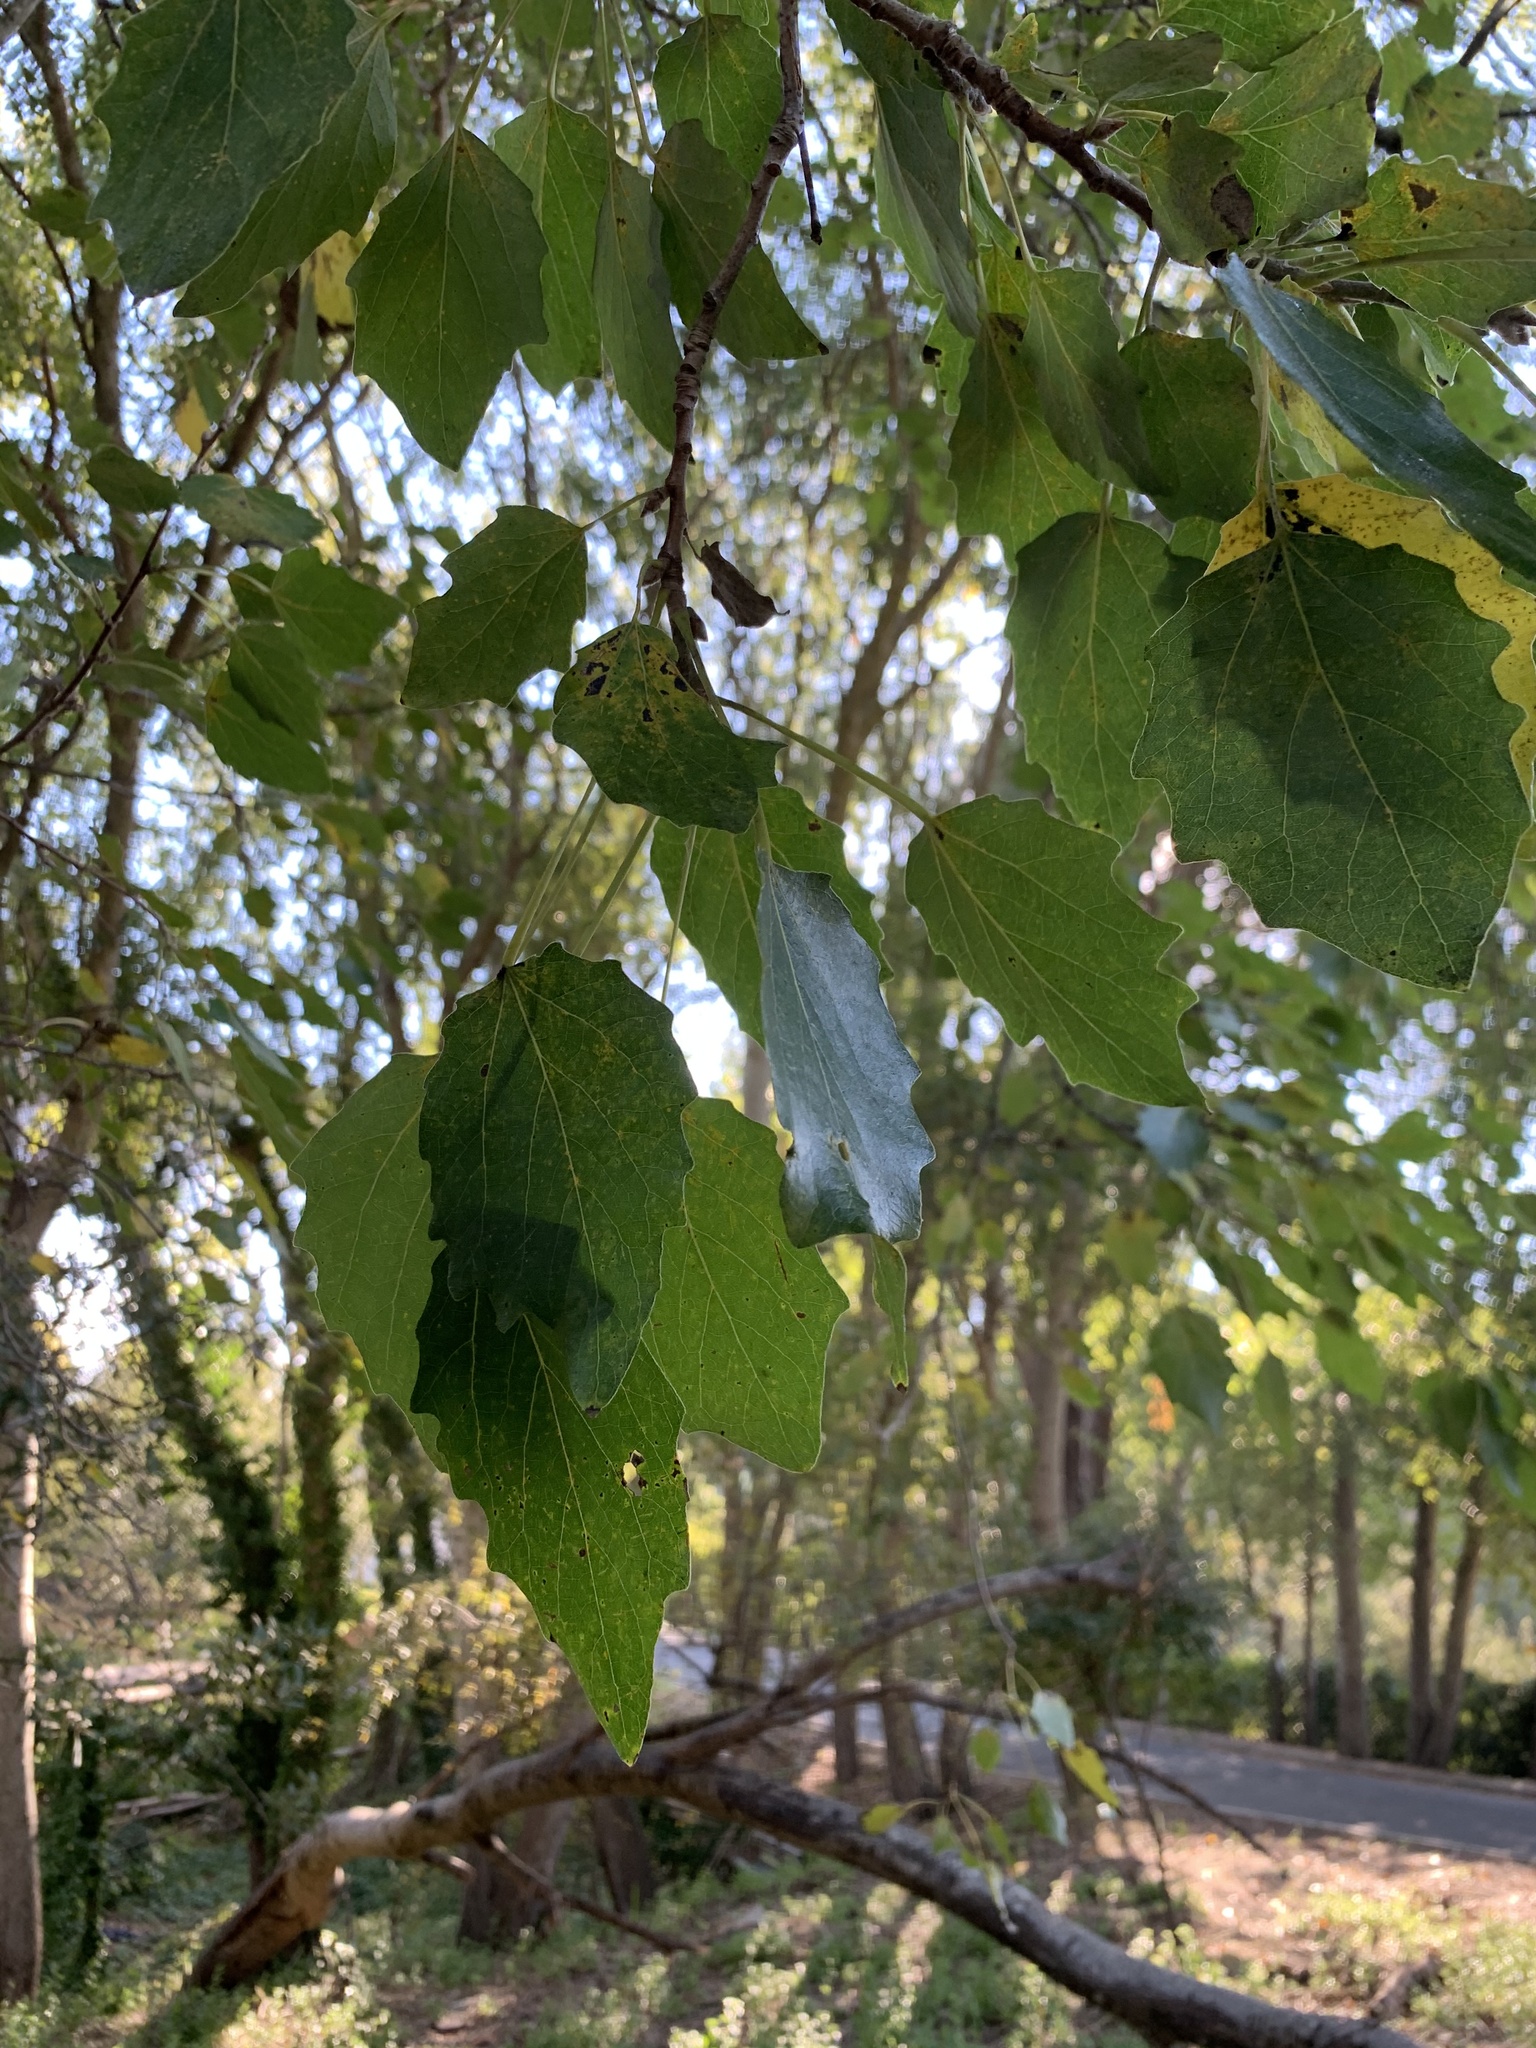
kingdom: Animalia
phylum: Arthropoda
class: Insecta
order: Coleoptera
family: Curculionidae
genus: Euwallacea
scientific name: Euwallacea fornicatus
